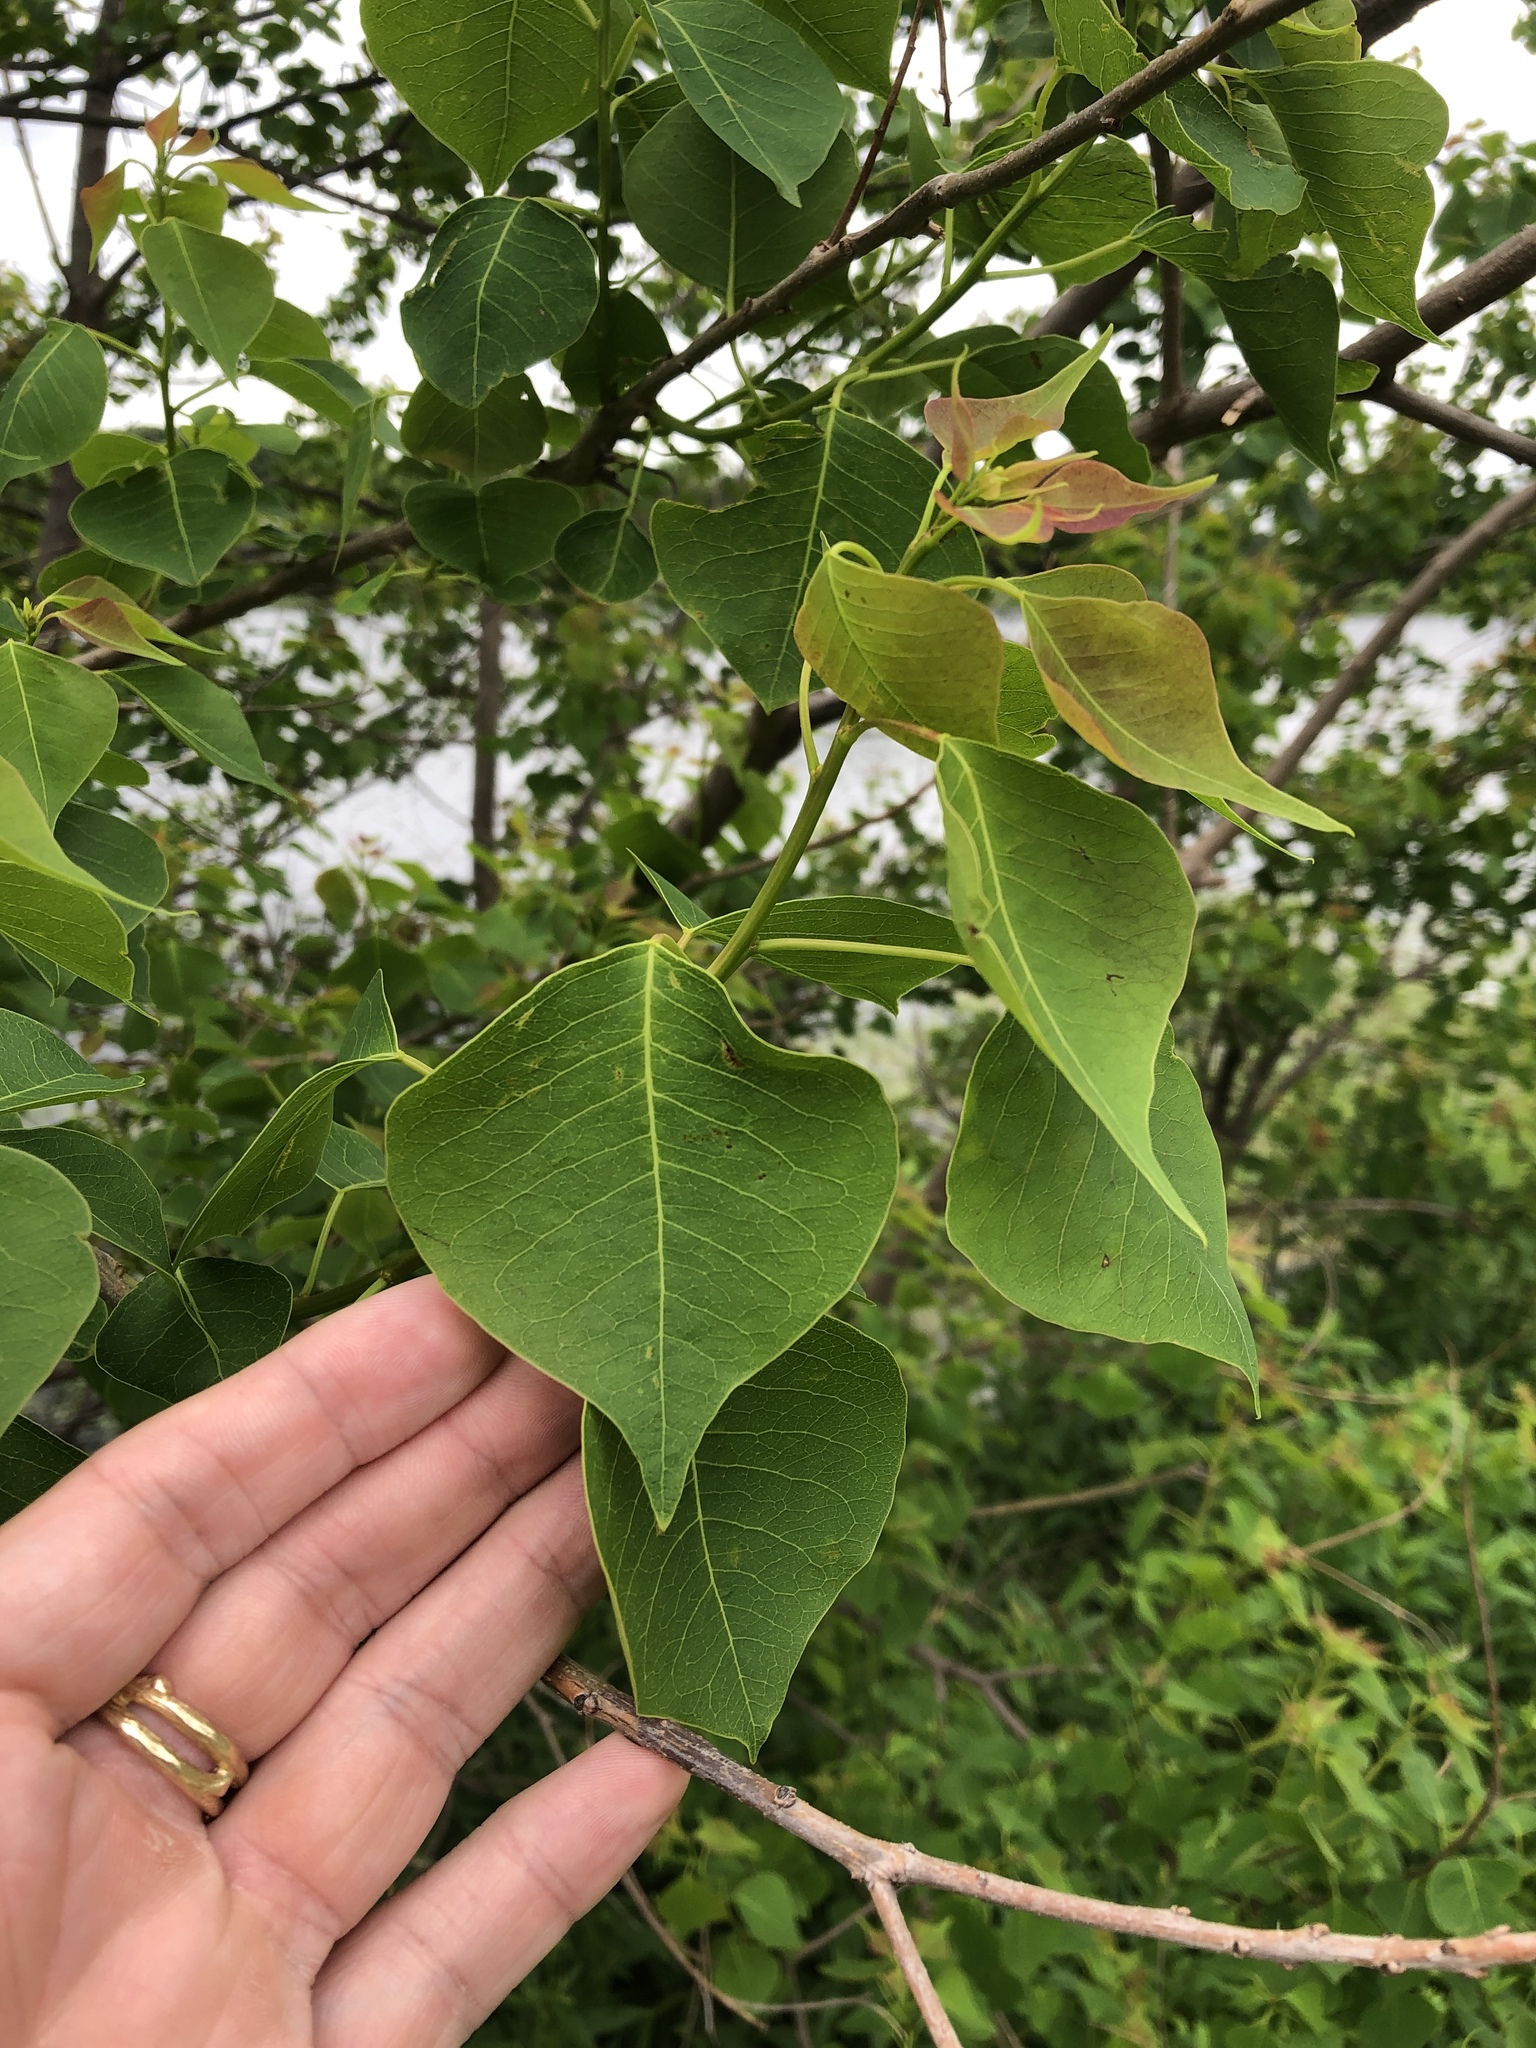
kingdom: Plantae
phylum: Tracheophyta
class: Magnoliopsida
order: Malpighiales
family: Euphorbiaceae
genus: Triadica
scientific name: Triadica sebifera
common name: Chinese tallow
